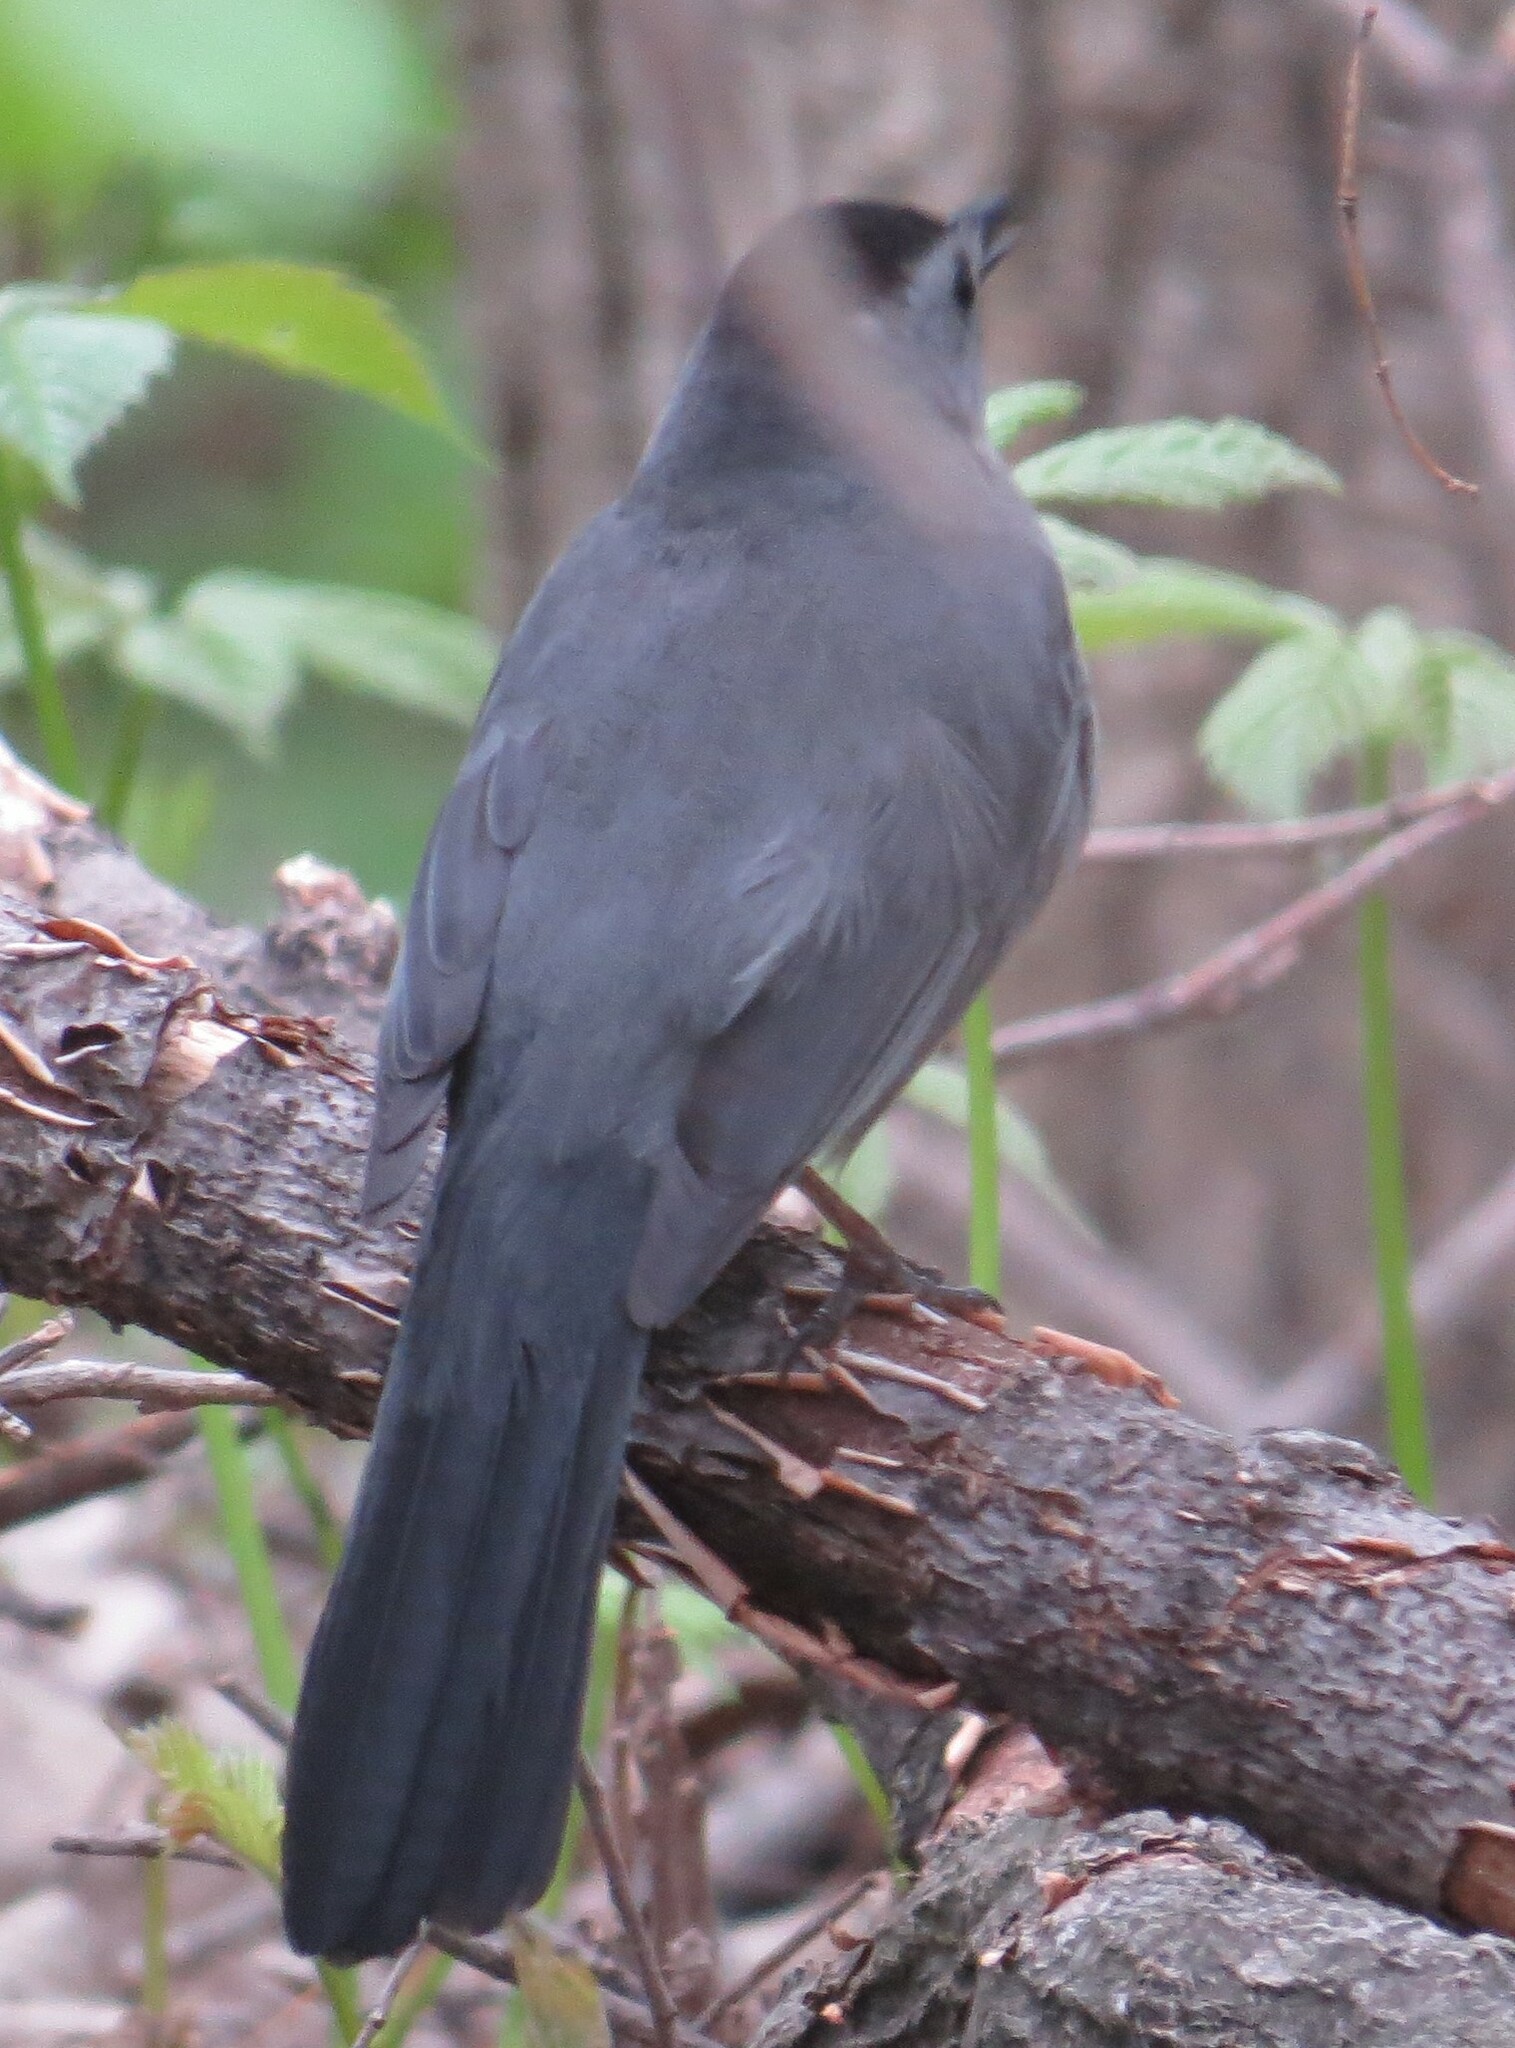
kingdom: Animalia
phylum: Chordata
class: Aves
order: Passeriformes
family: Mimidae
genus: Dumetella
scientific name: Dumetella carolinensis
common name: Gray catbird
